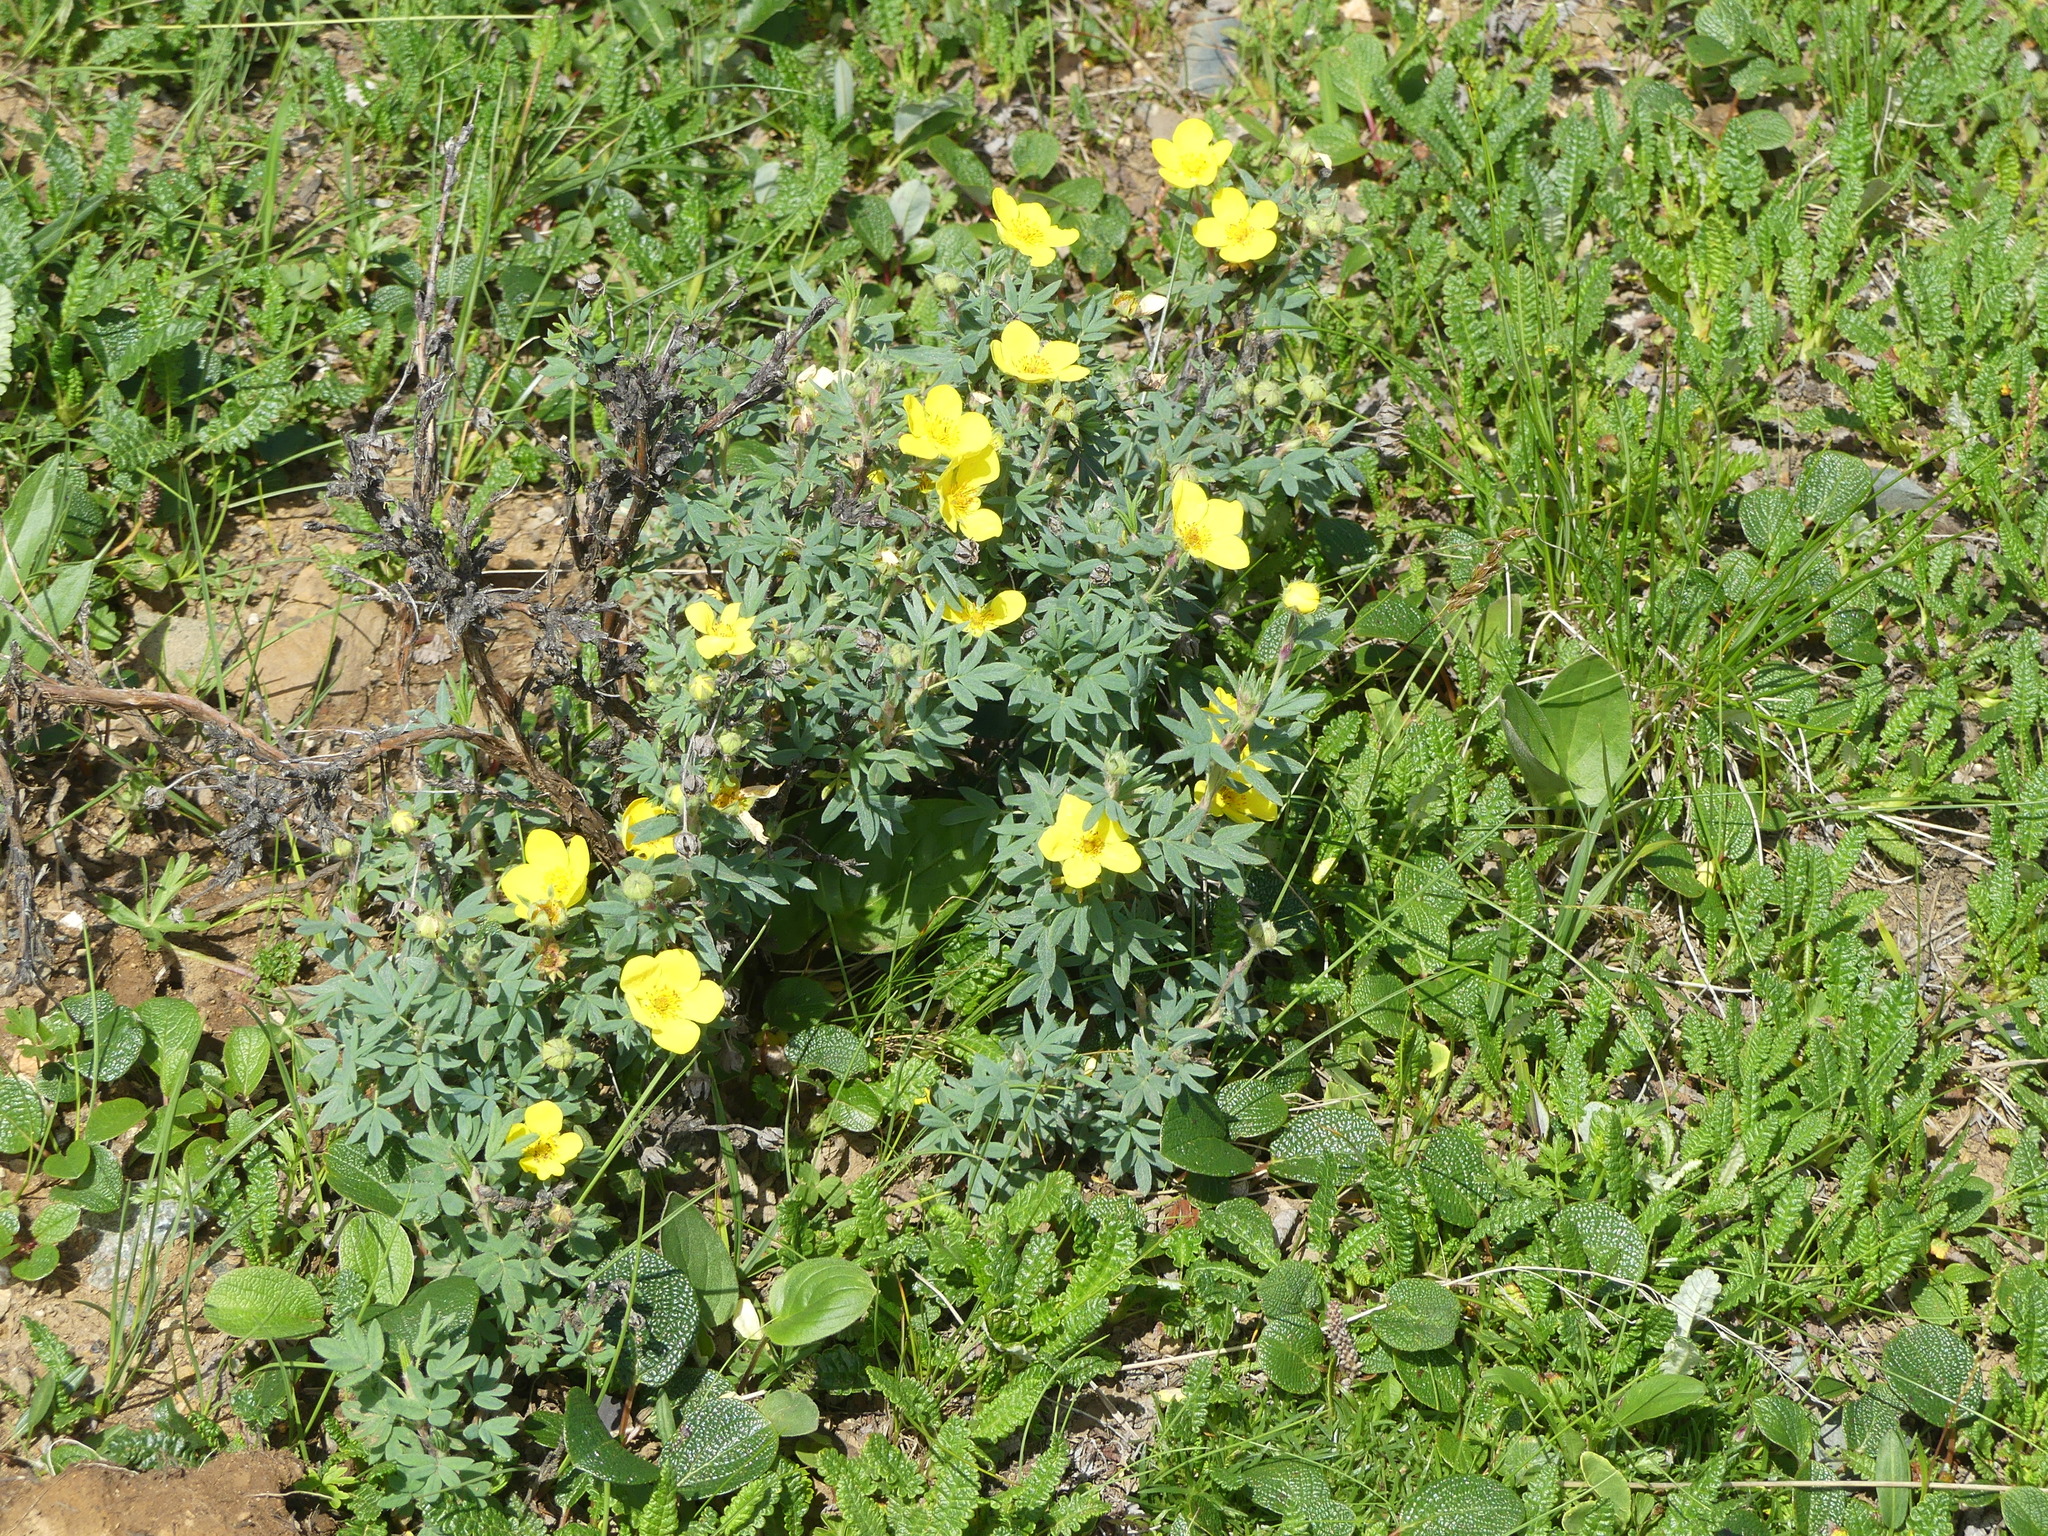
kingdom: Plantae
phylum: Tracheophyta
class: Magnoliopsida
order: Rosales
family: Rosaceae
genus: Dasiphora
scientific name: Dasiphora fruticosa
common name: Shrubby cinquefoil
